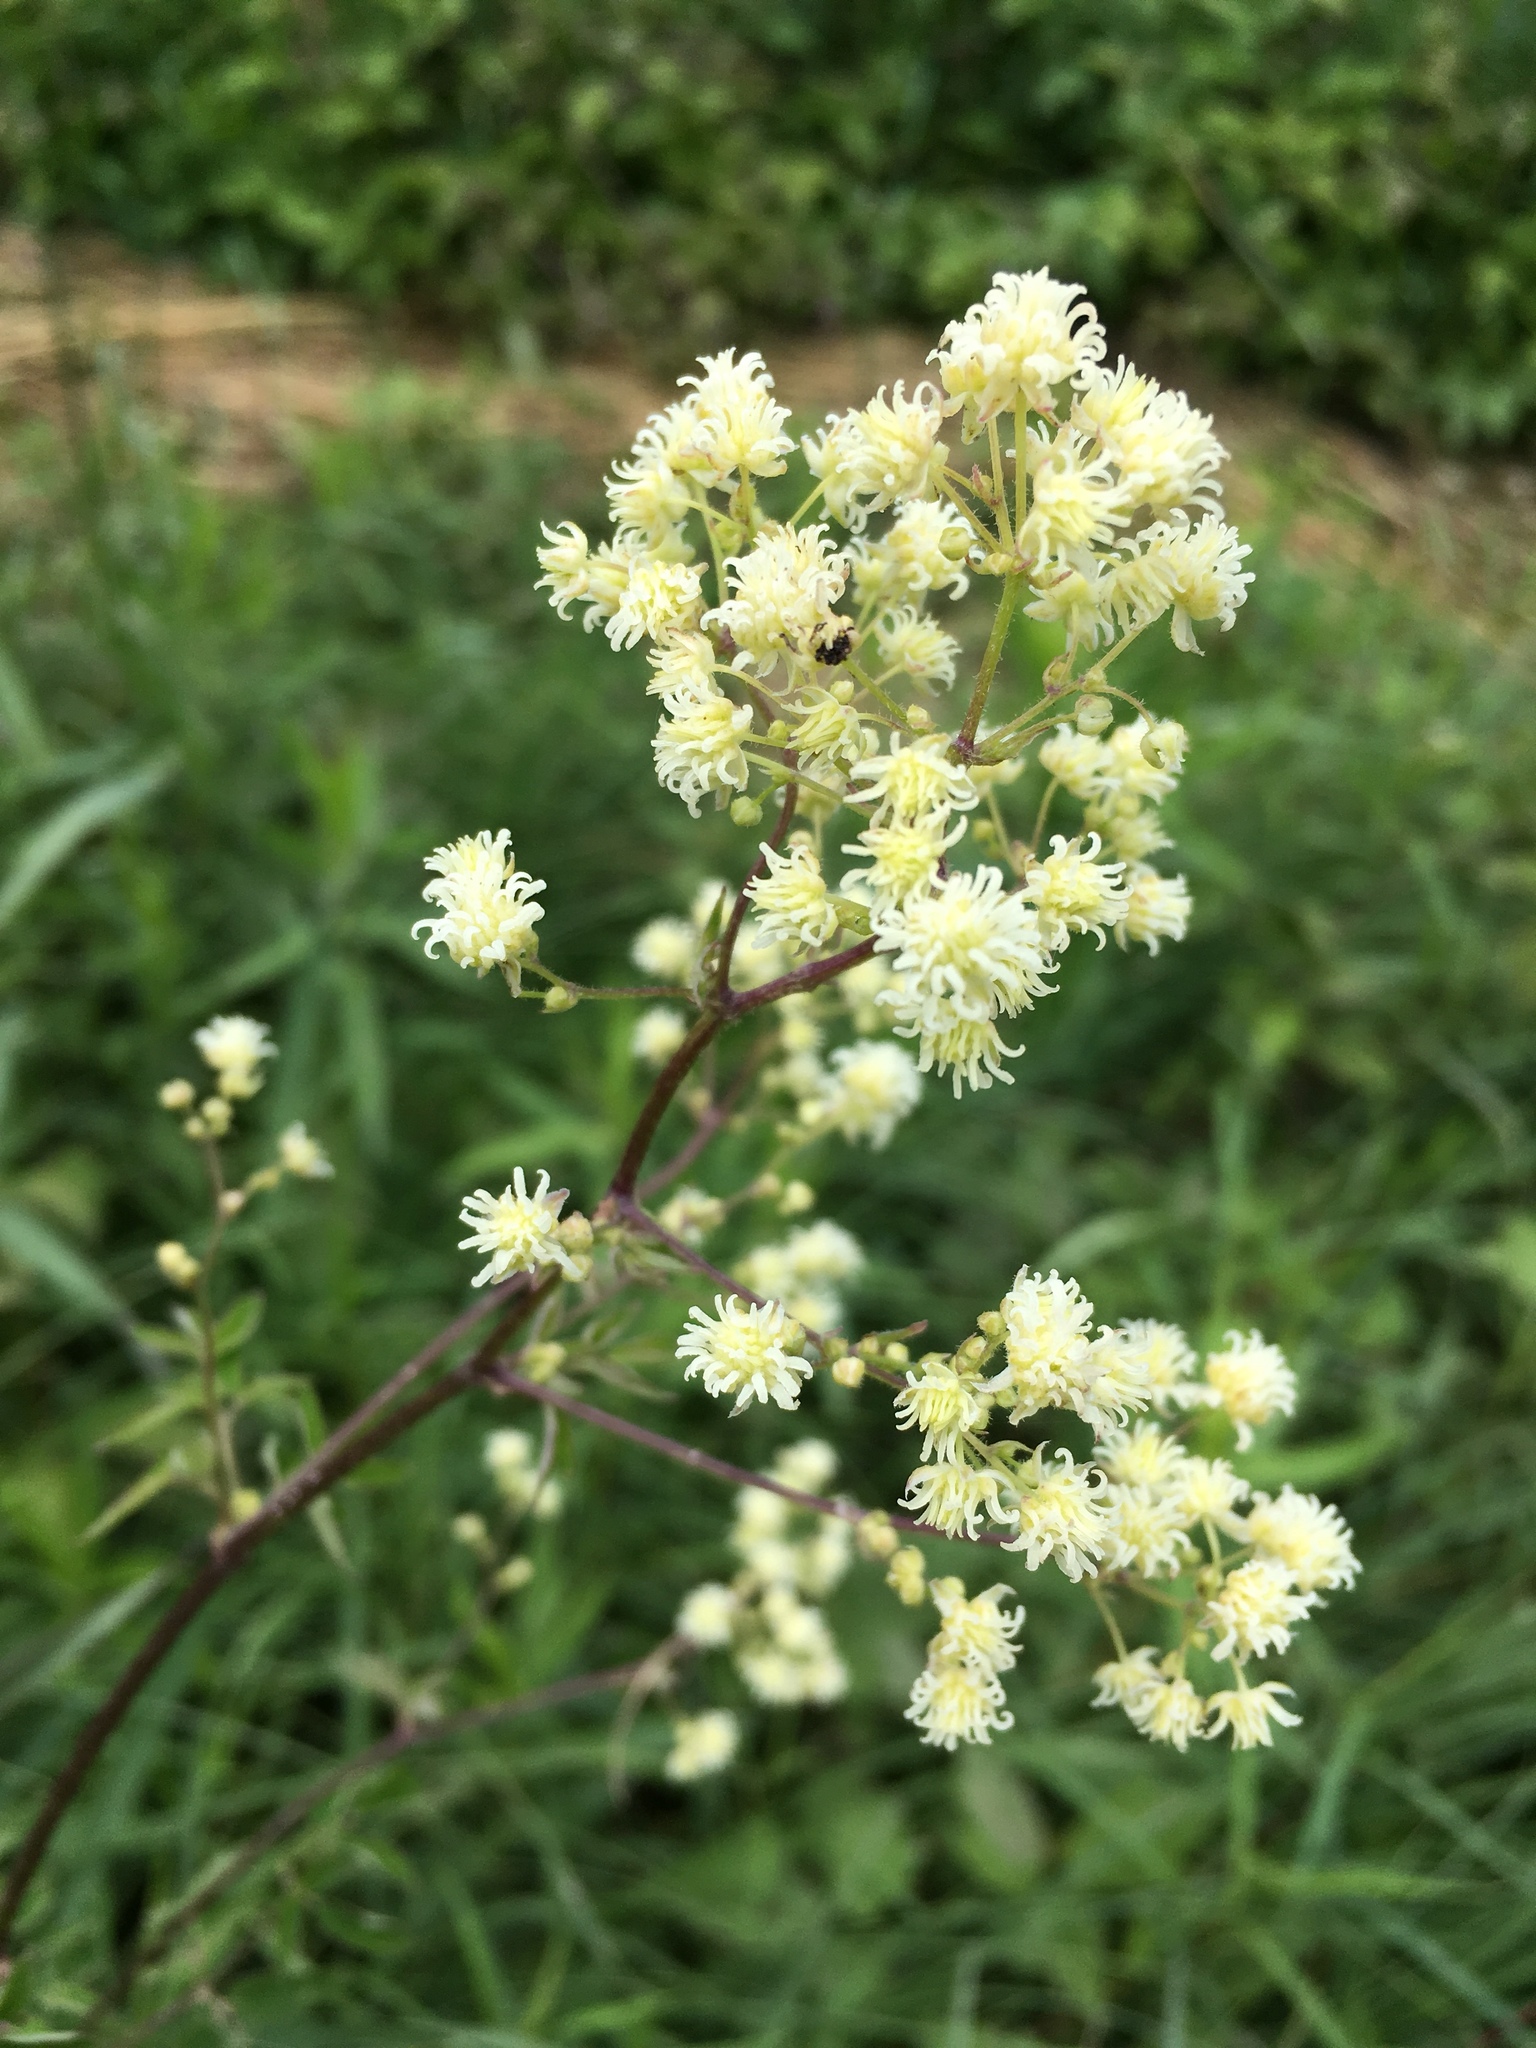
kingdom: Plantae
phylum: Tracheophyta
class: Magnoliopsida
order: Ranunculales
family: Ranunculaceae
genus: Thalictrum
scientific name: Thalictrum dasycarpum
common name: Purple meadow-rue
